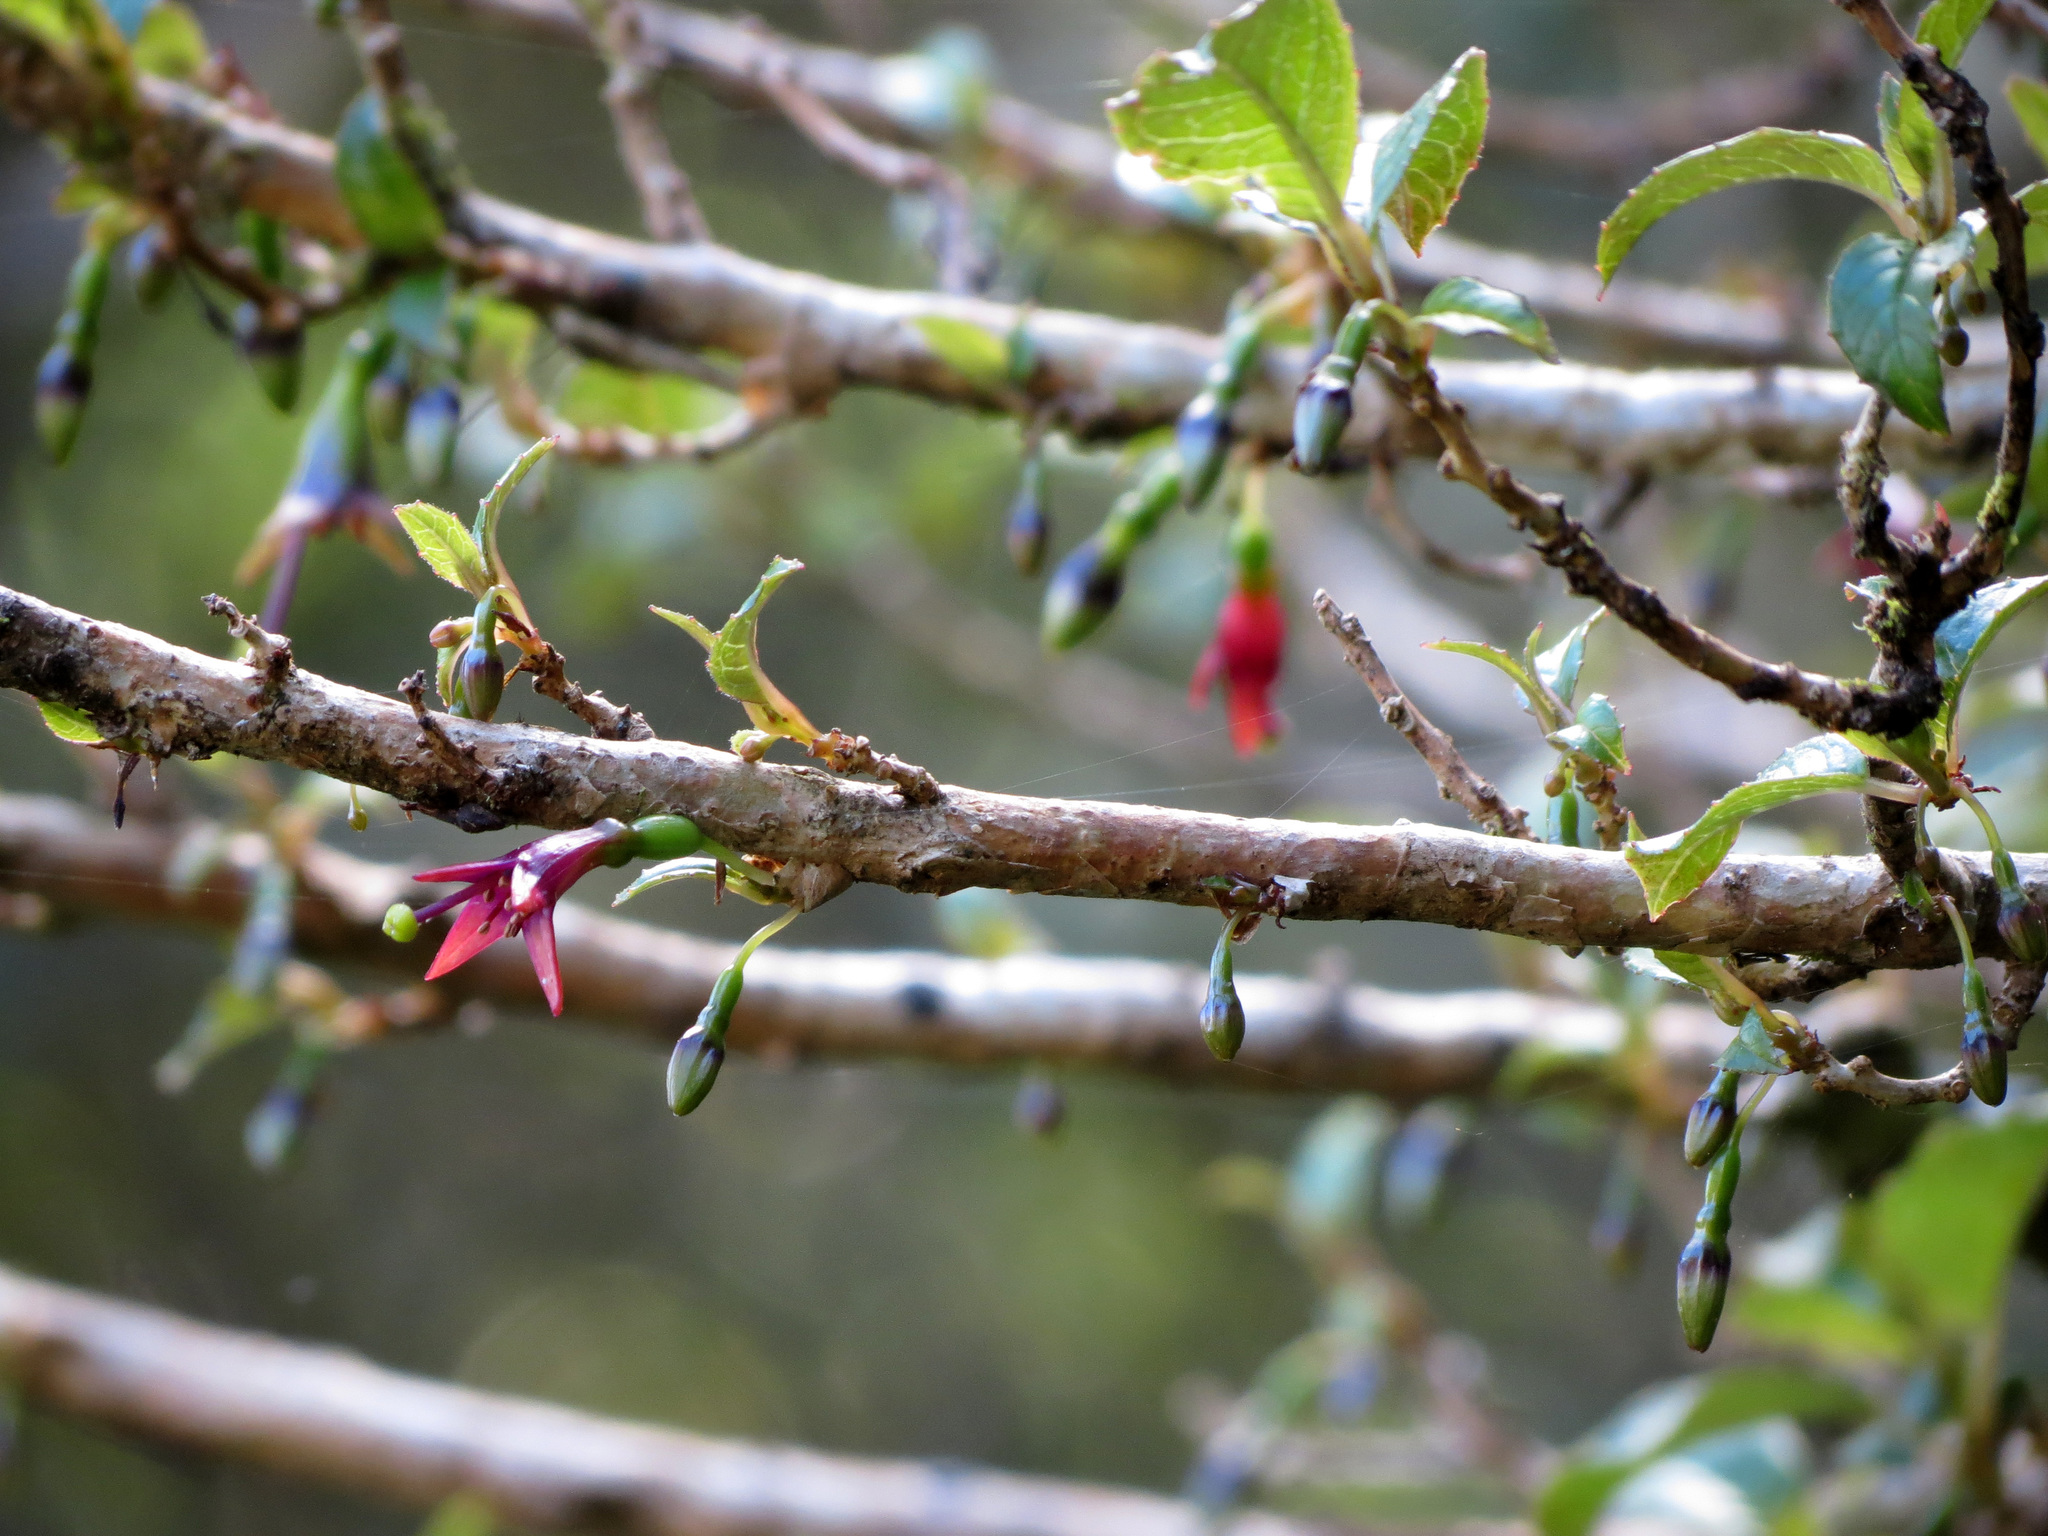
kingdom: Plantae
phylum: Tracheophyta
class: Magnoliopsida
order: Myrtales
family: Onagraceae
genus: Fuchsia
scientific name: Fuchsia excorticata
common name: Tree fuchsia
